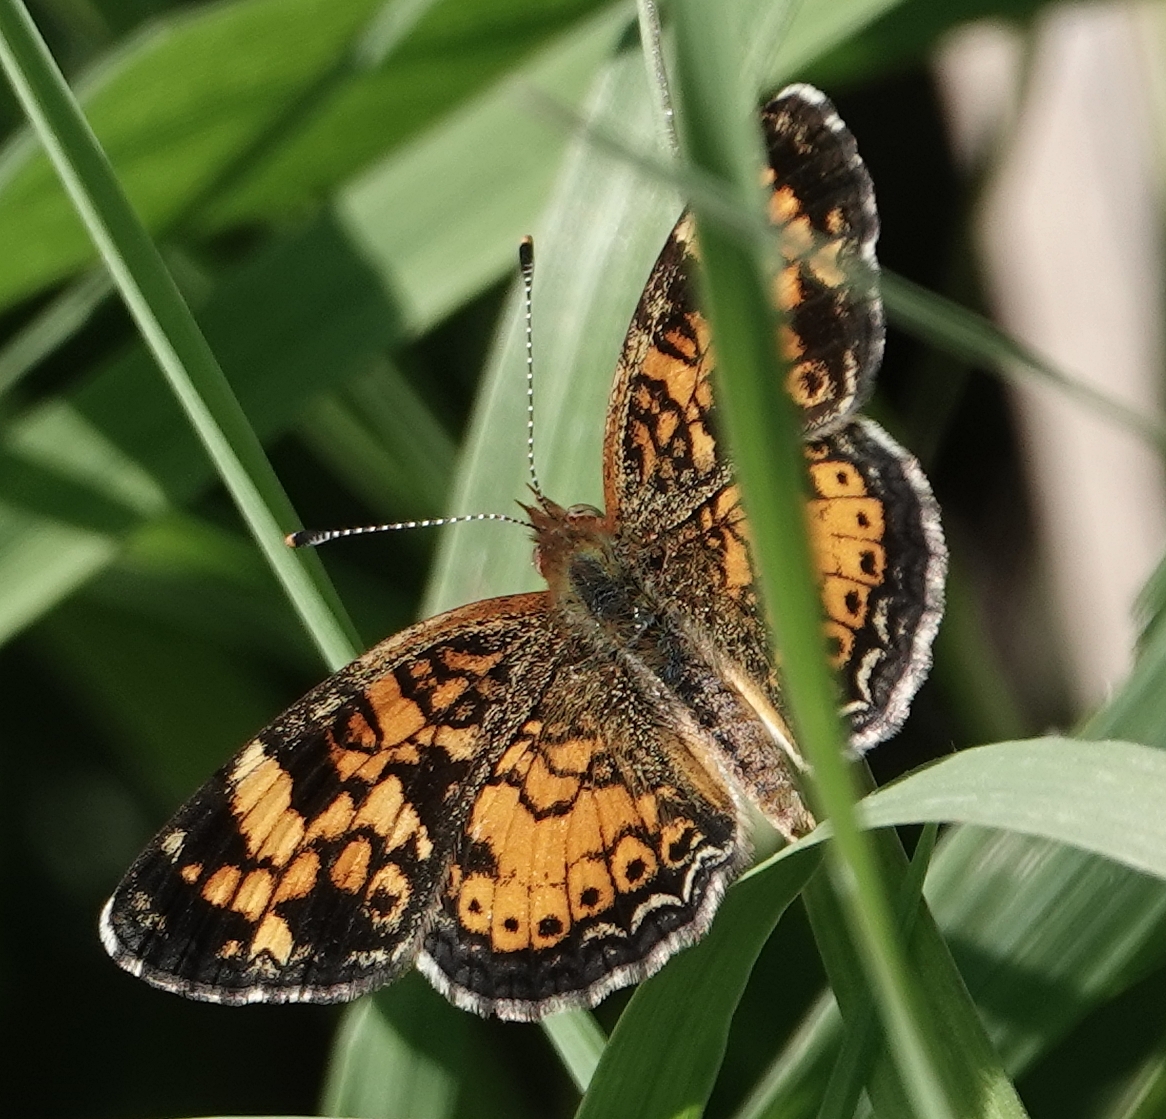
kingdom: Animalia
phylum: Arthropoda
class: Insecta
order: Lepidoptera
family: Nymphalidae
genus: Phyciodes
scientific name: Phyciodes tharos
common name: Pearl crescent
